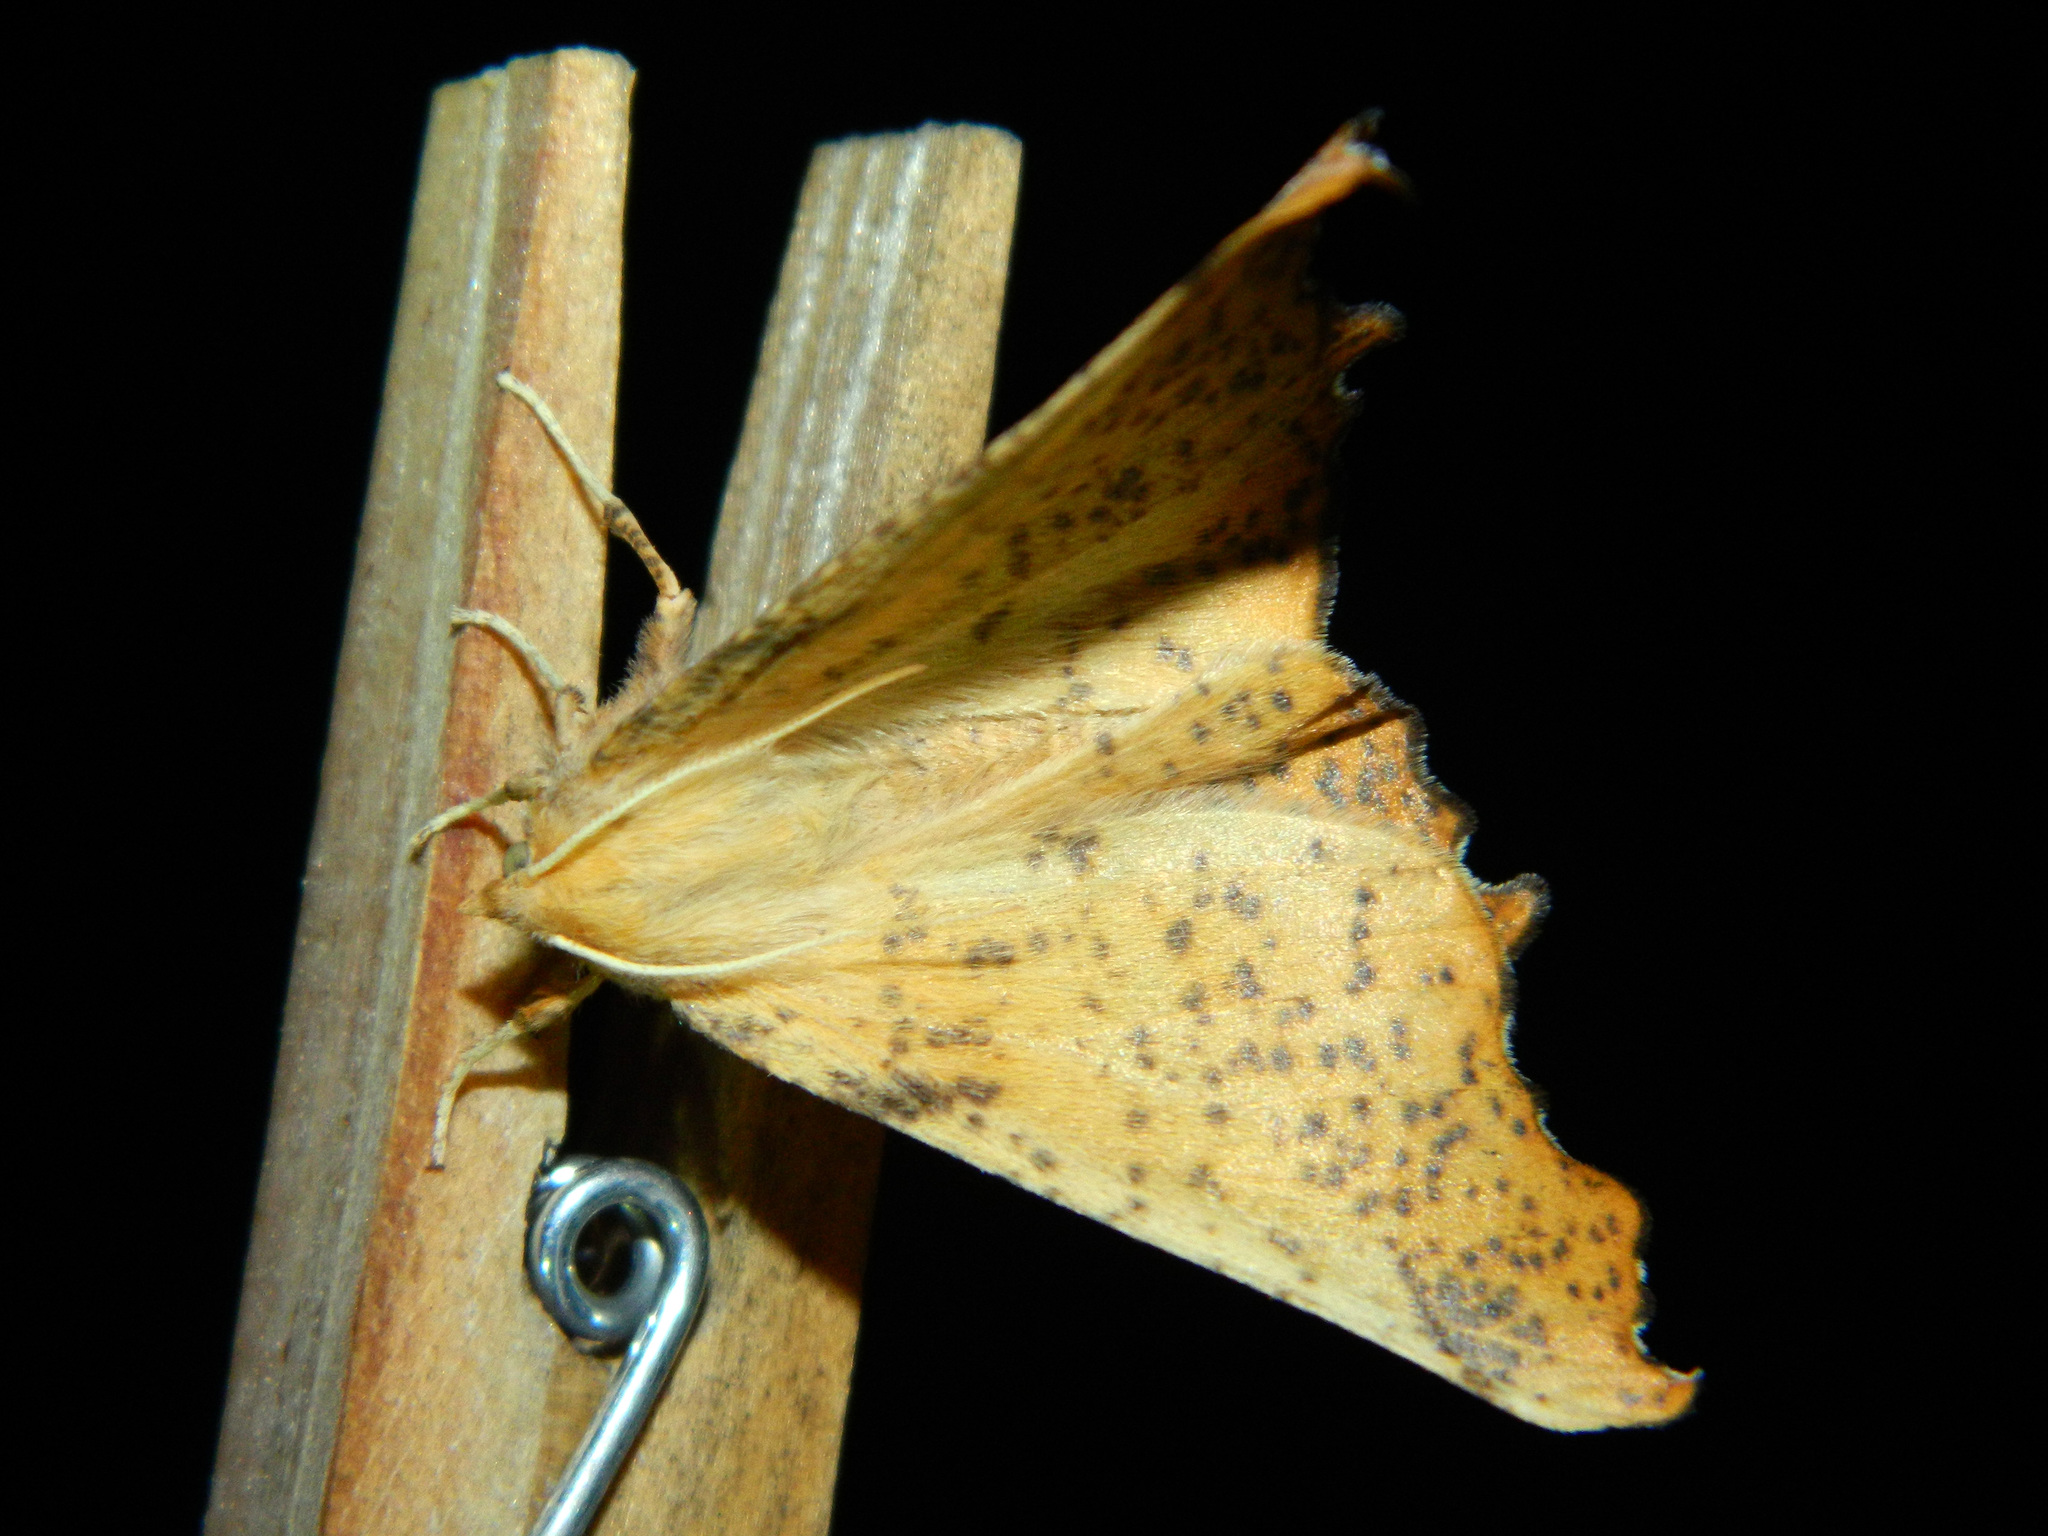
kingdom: Animalia
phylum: Arthropoda
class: Insecta
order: Lepidoptera
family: Geometridae
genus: Ennomos
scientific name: Ennomos magnaria
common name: Maple spanworm
